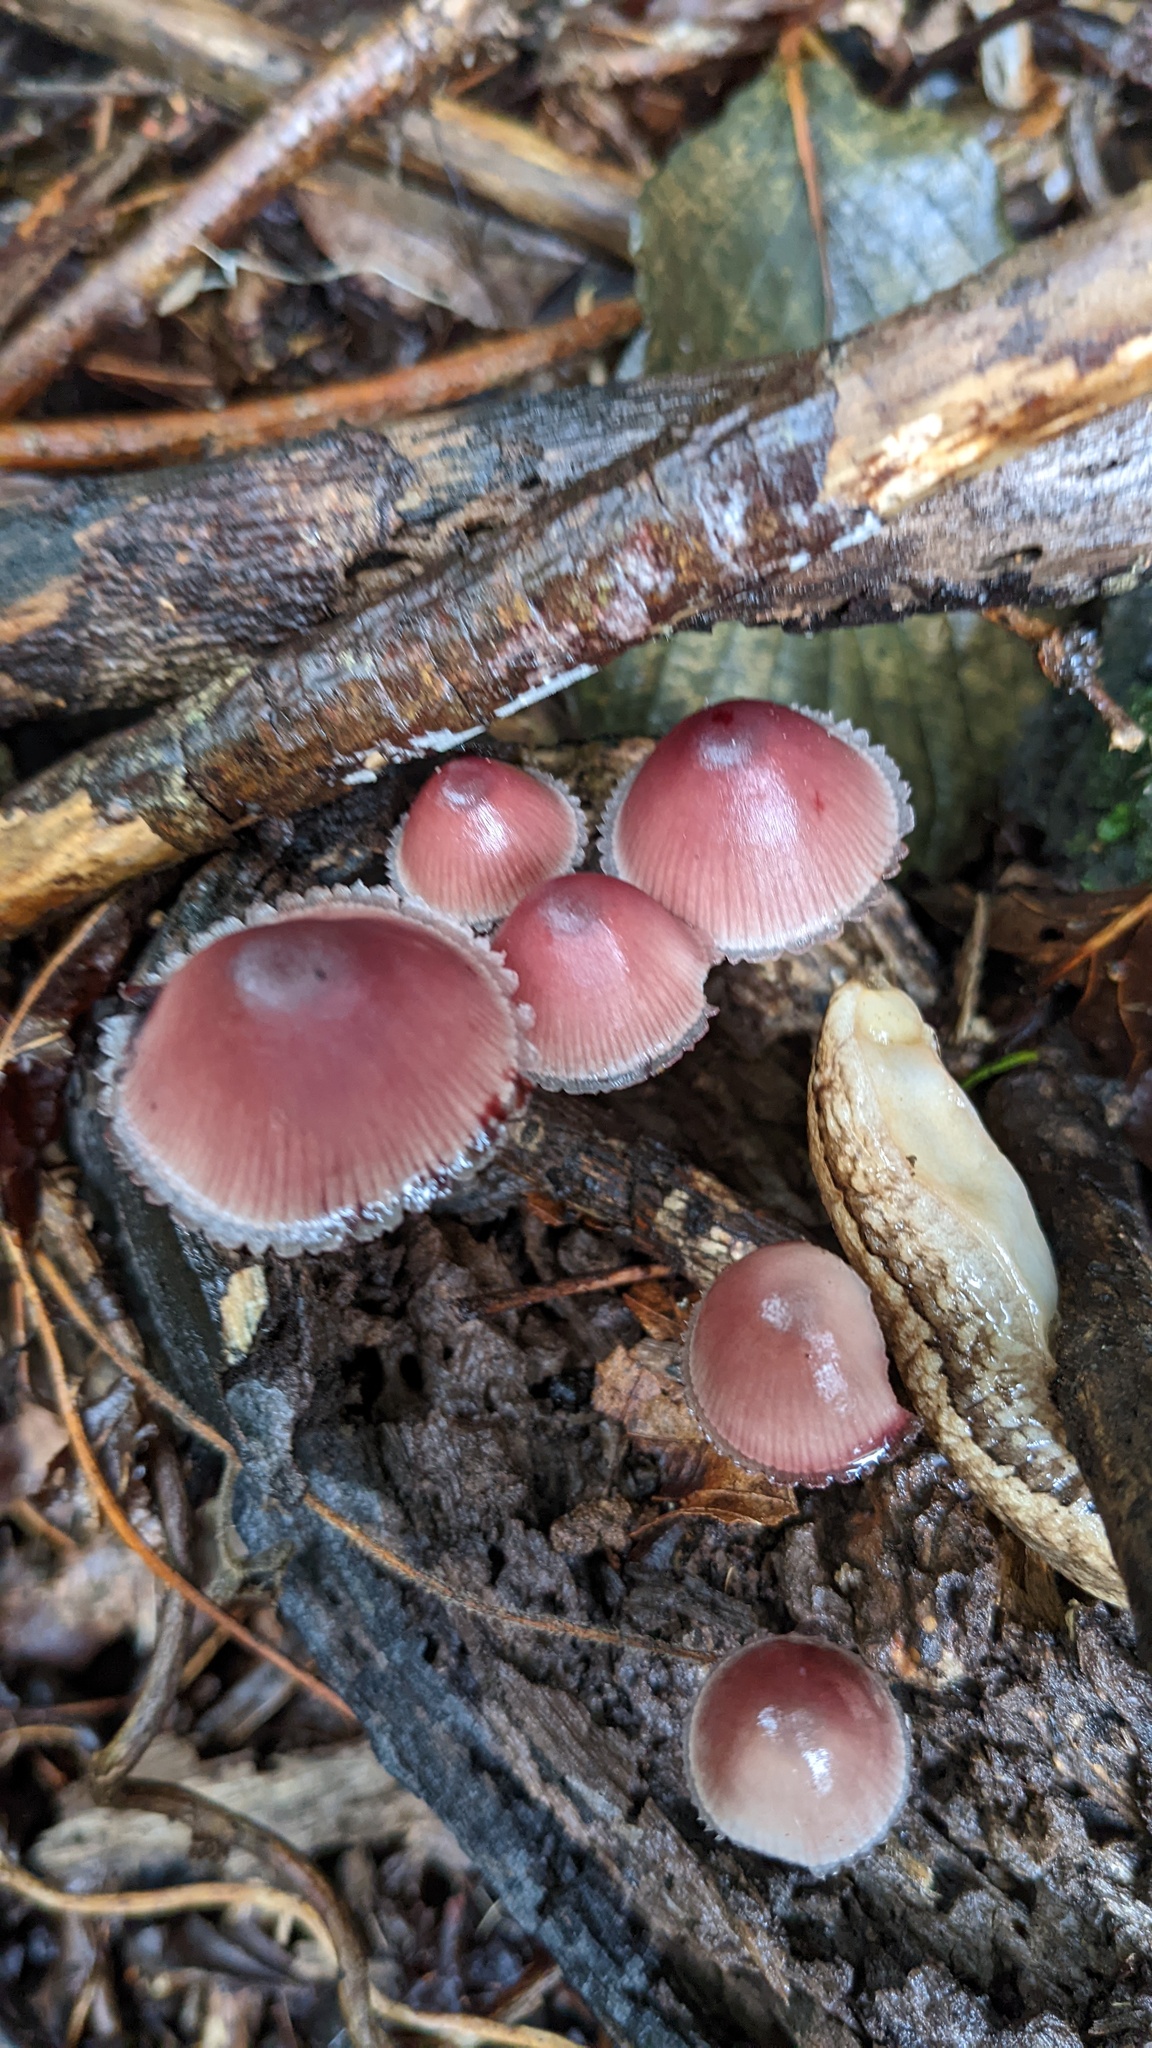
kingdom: Fungi
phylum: Basidiomycota
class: Agaricomycetes
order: Agaricales
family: Mycenaceae
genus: Mycena
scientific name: Mycena haematopus
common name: Burgundydrop bonnet
